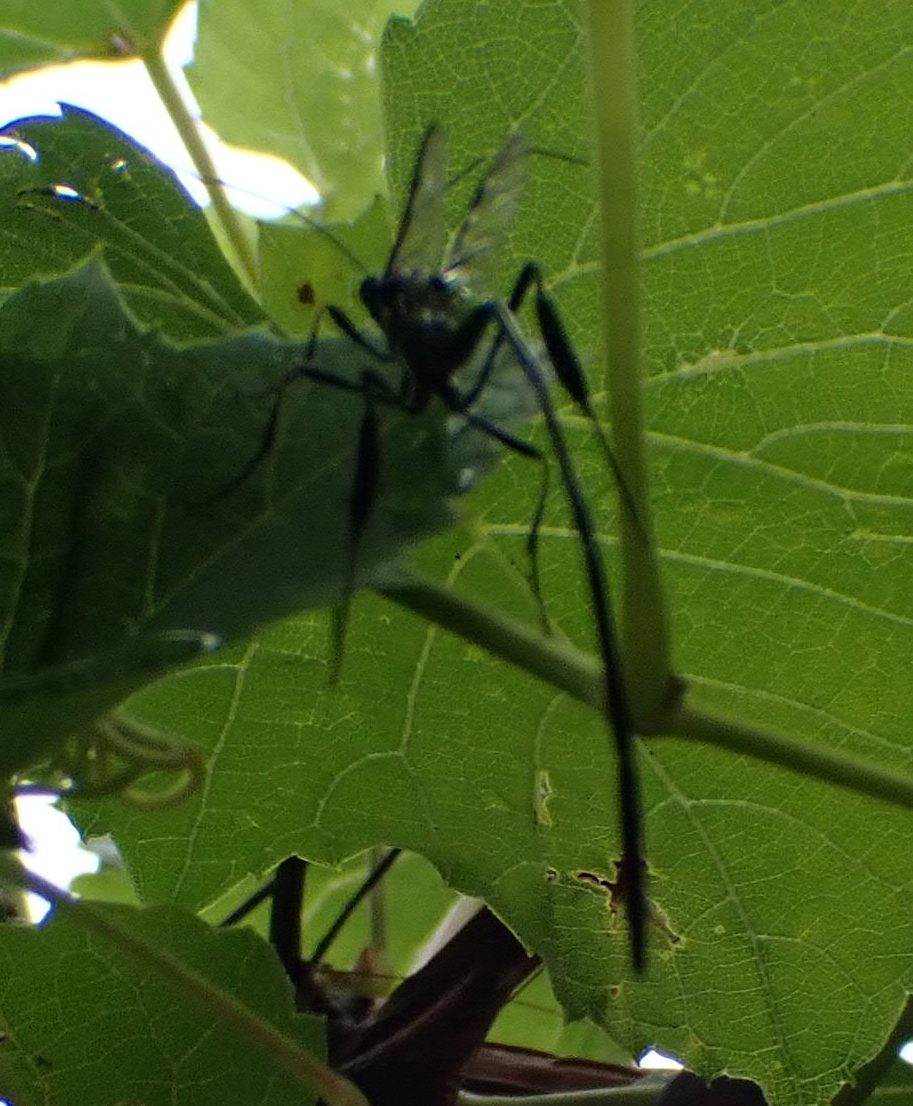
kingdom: Animalia
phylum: Arthropoda
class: Insecta
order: Hymenoptera
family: Pelecinidae
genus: Pelecinus
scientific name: Pelecinus polyturator
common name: American pelecinid wasp
